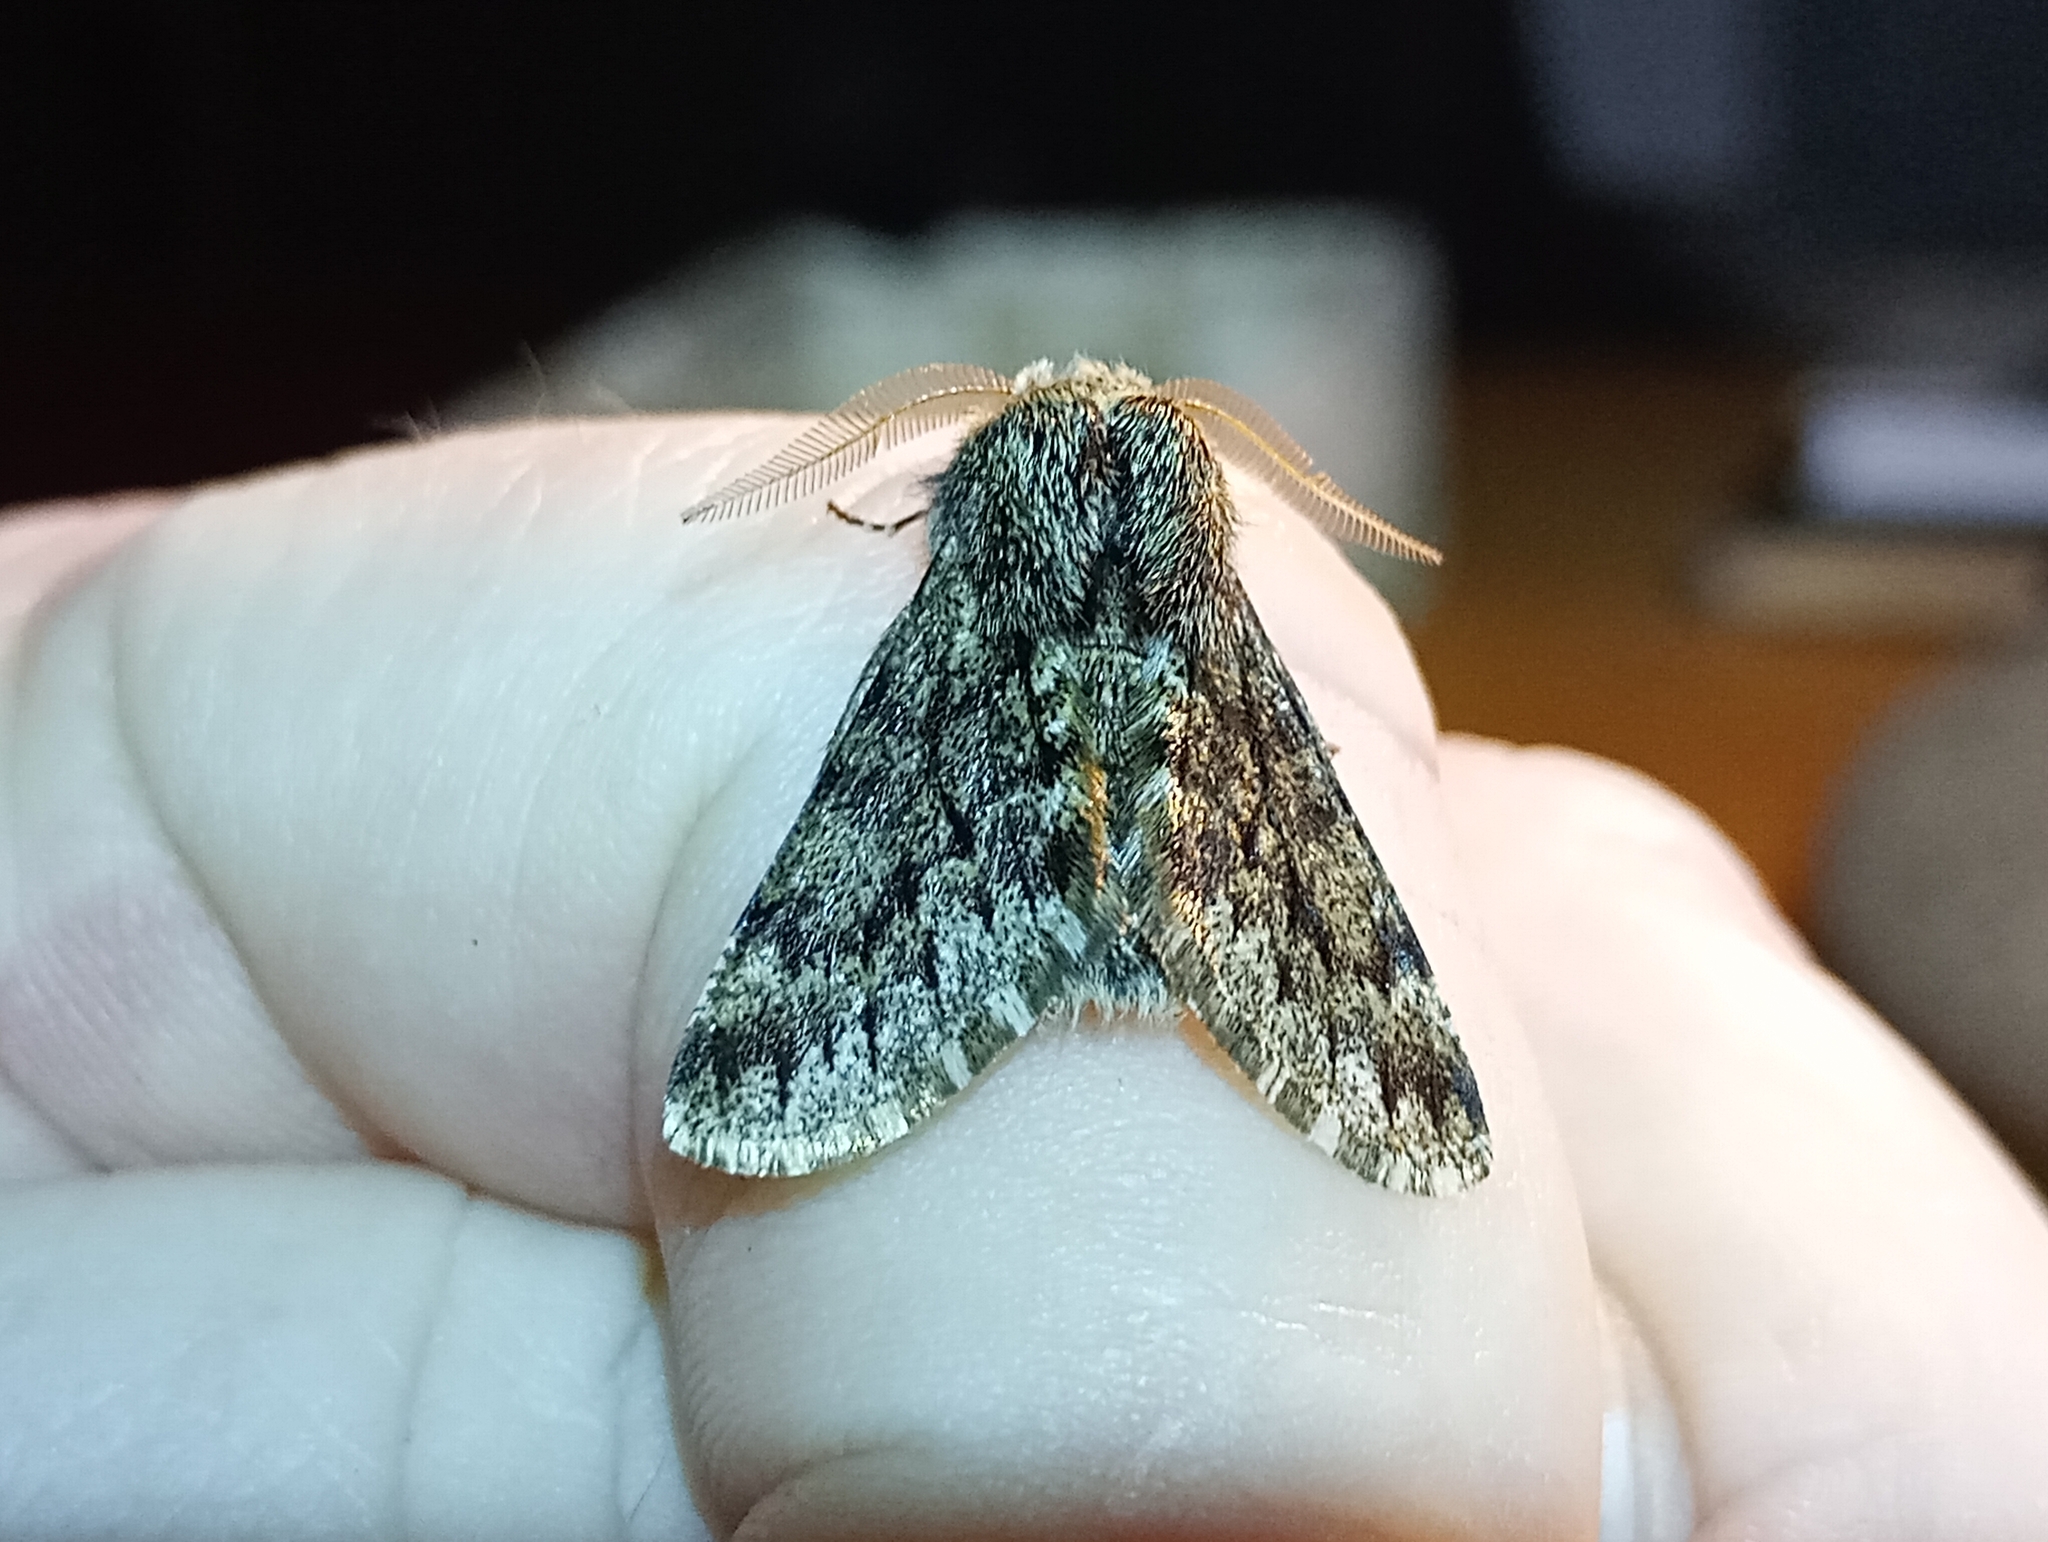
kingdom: Animalia
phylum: Arthropoda
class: Insecta
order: Lepidoptera
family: Geometridae
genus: Apocheima
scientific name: Apocheima hispidaria
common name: Small brindled beauty
